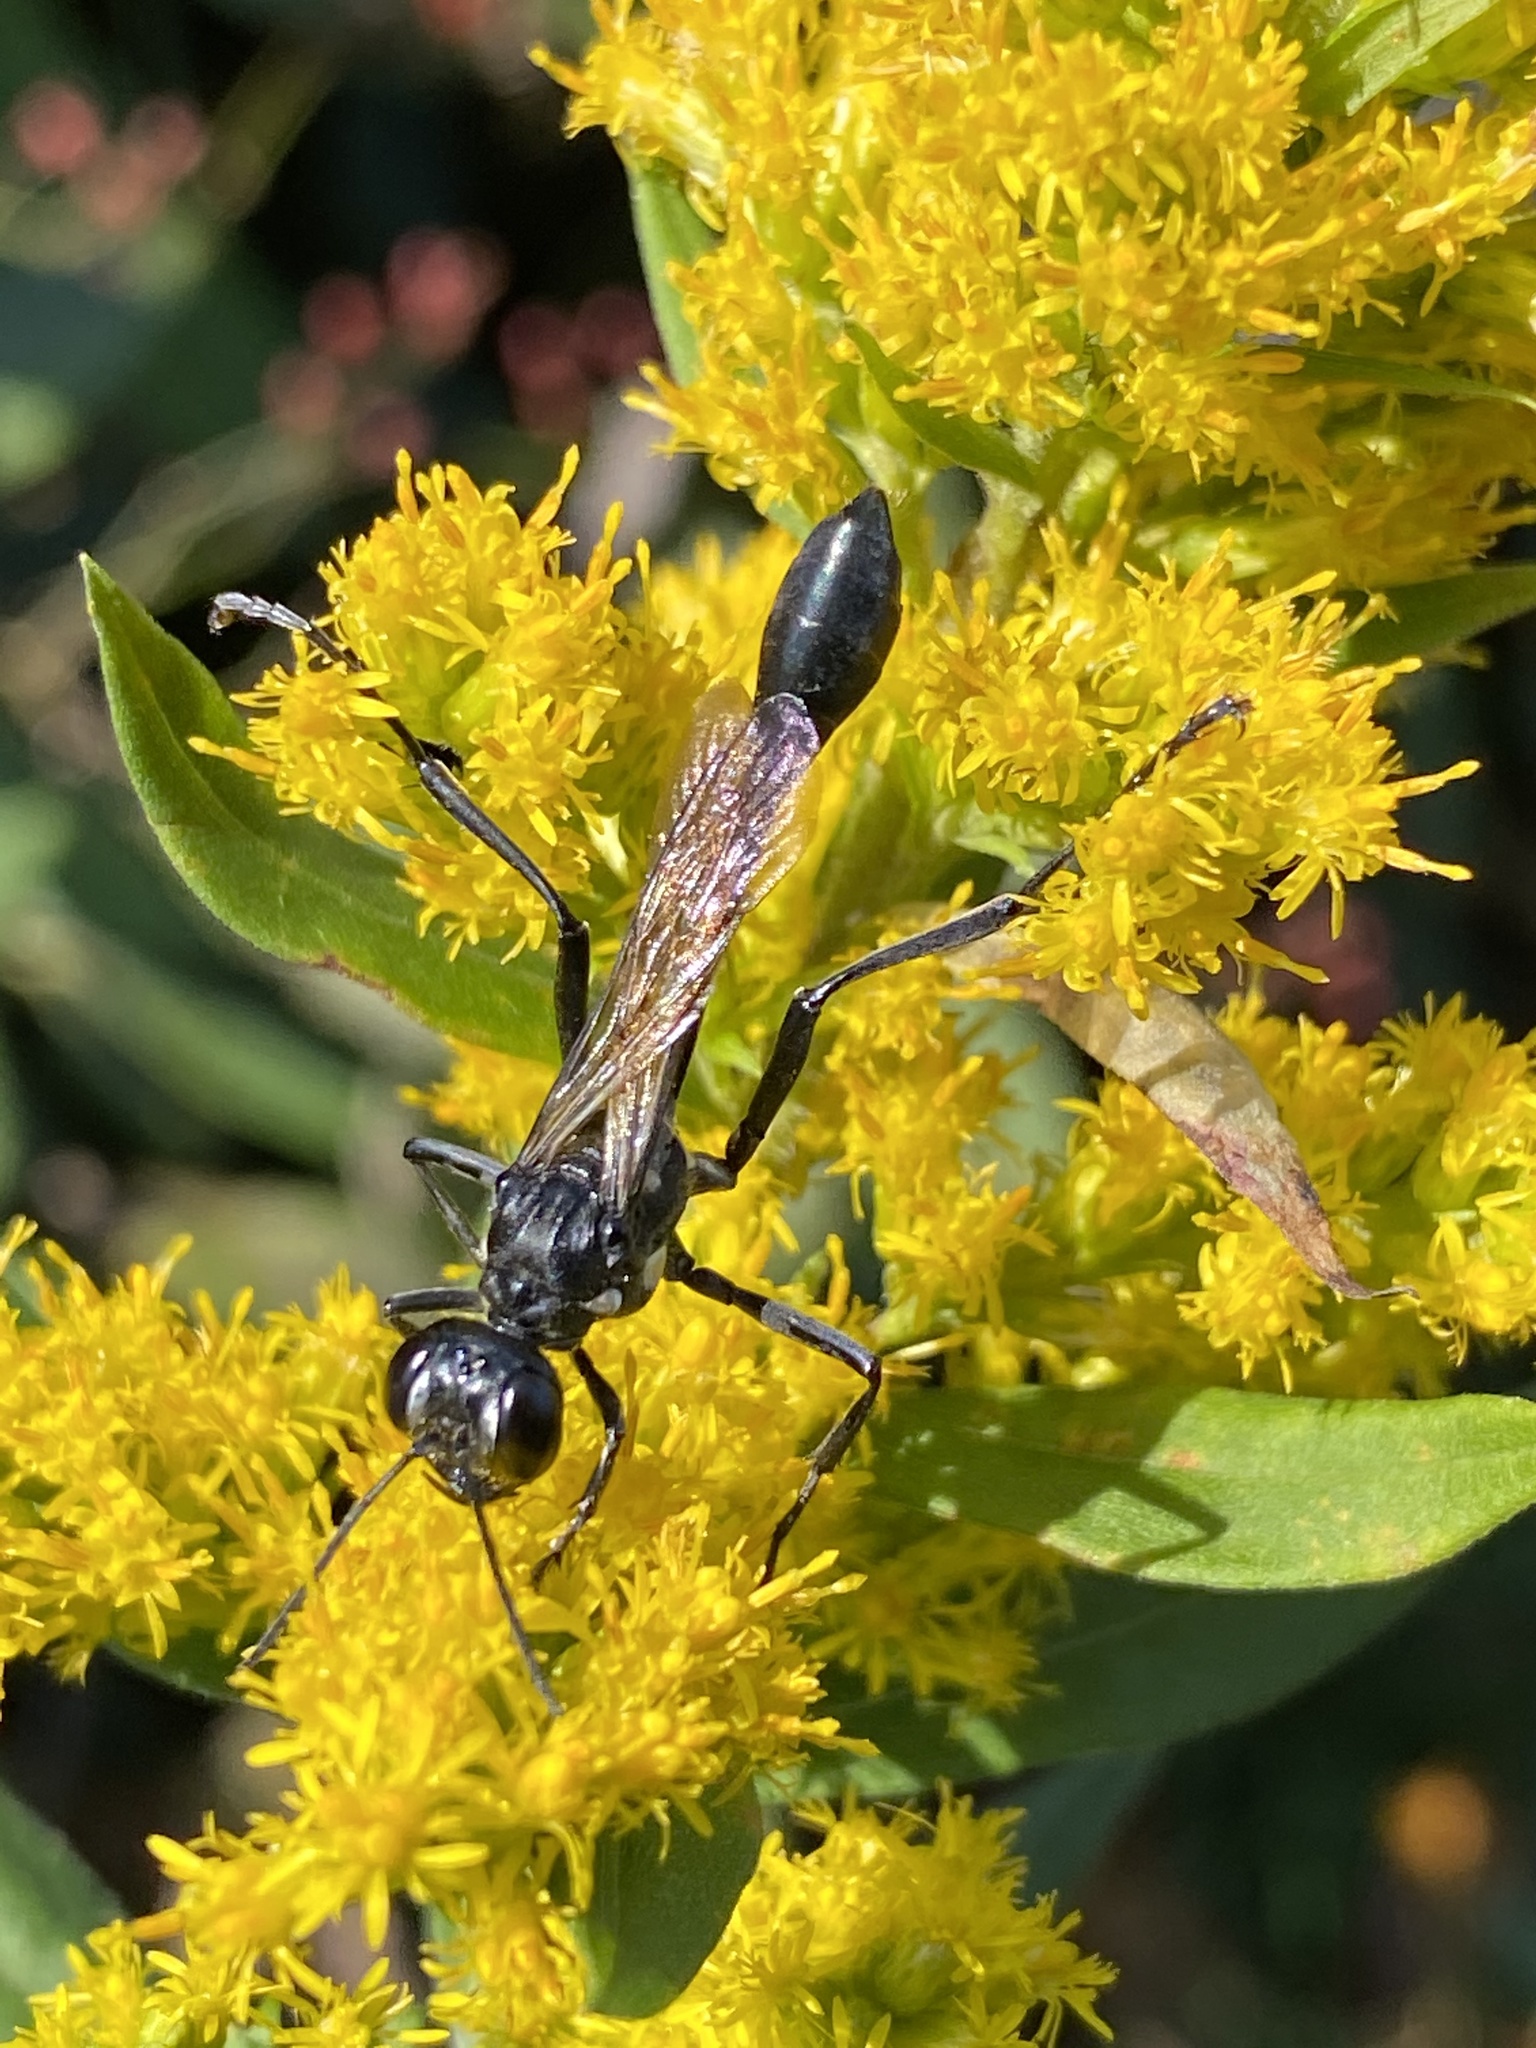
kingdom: Animalia
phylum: Arthropoda
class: Insecta
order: Hymenoptera
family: Sphecidae
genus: Eremnophila
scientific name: Eremnophila aureonotata
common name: Gold-marked thread-waisted wasp
